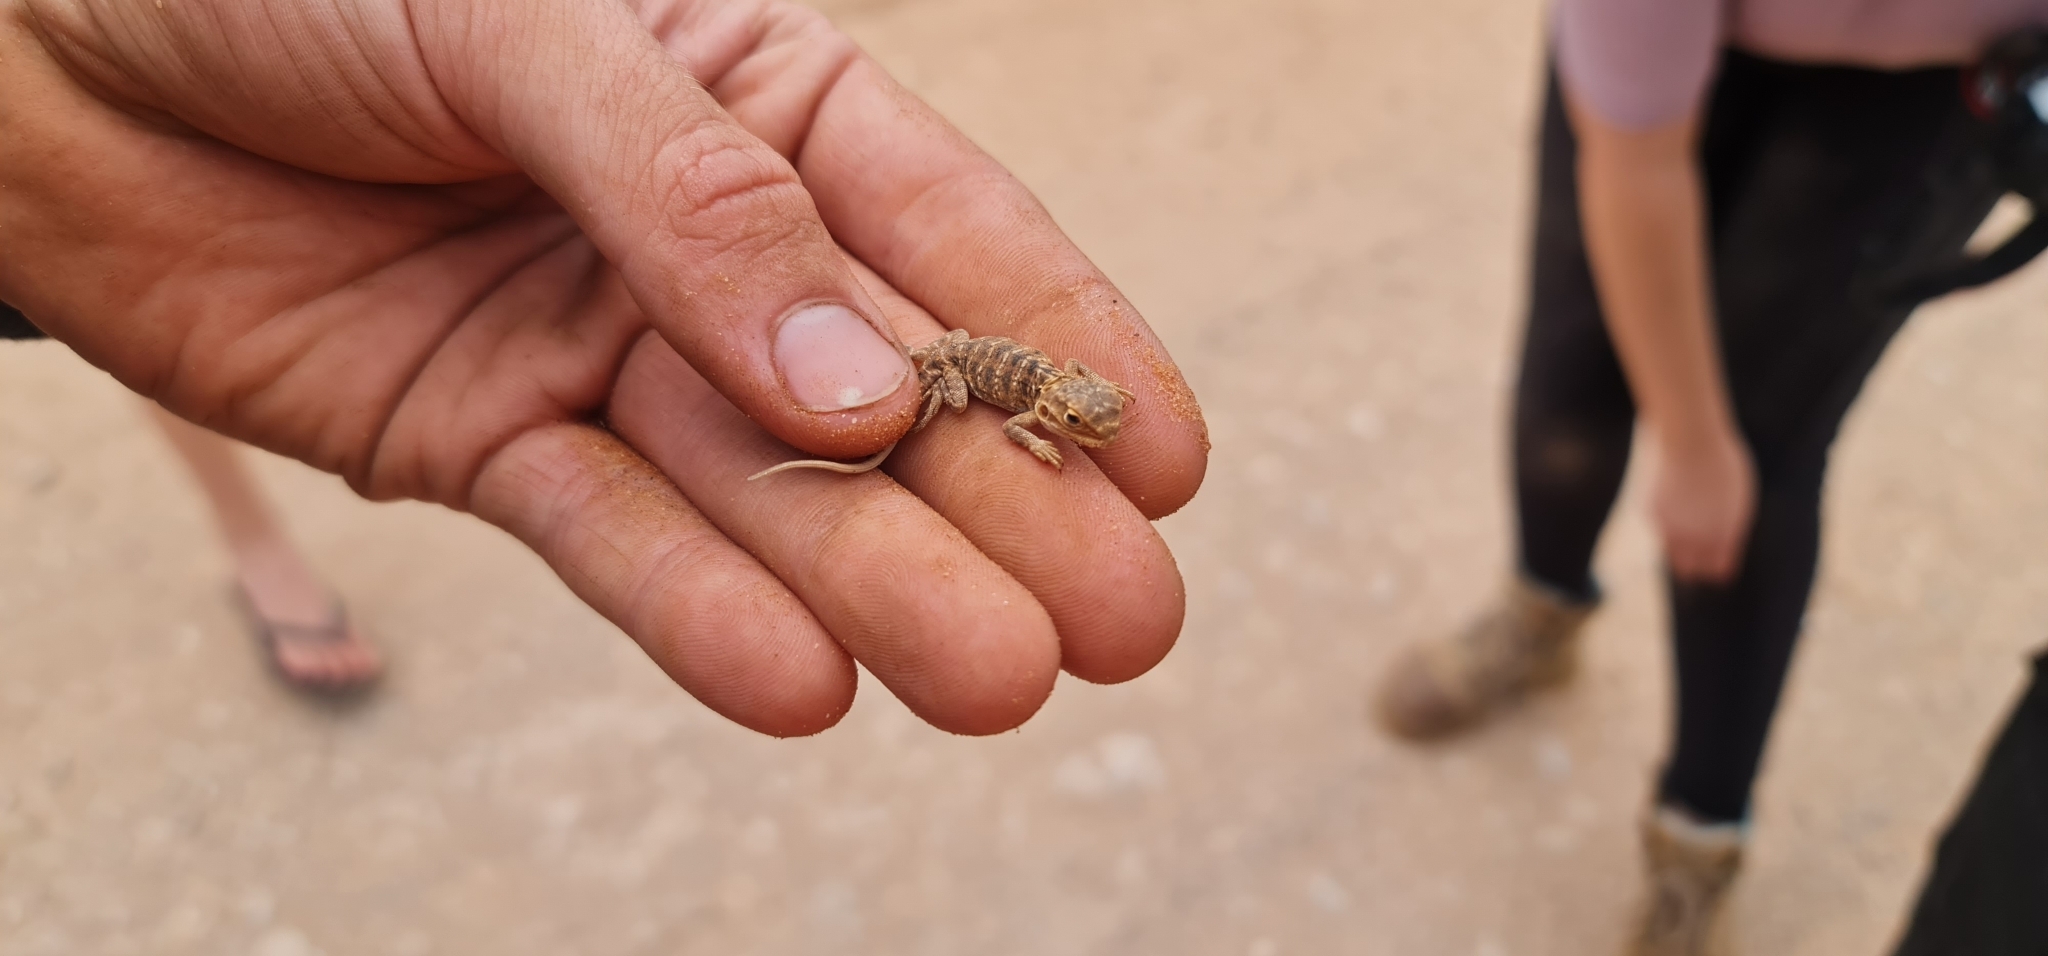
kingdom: Animalia
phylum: Chordata
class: Squamata
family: Agamidae
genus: Ctenophorus
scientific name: Ctenophorus pictus
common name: Painted dragon
